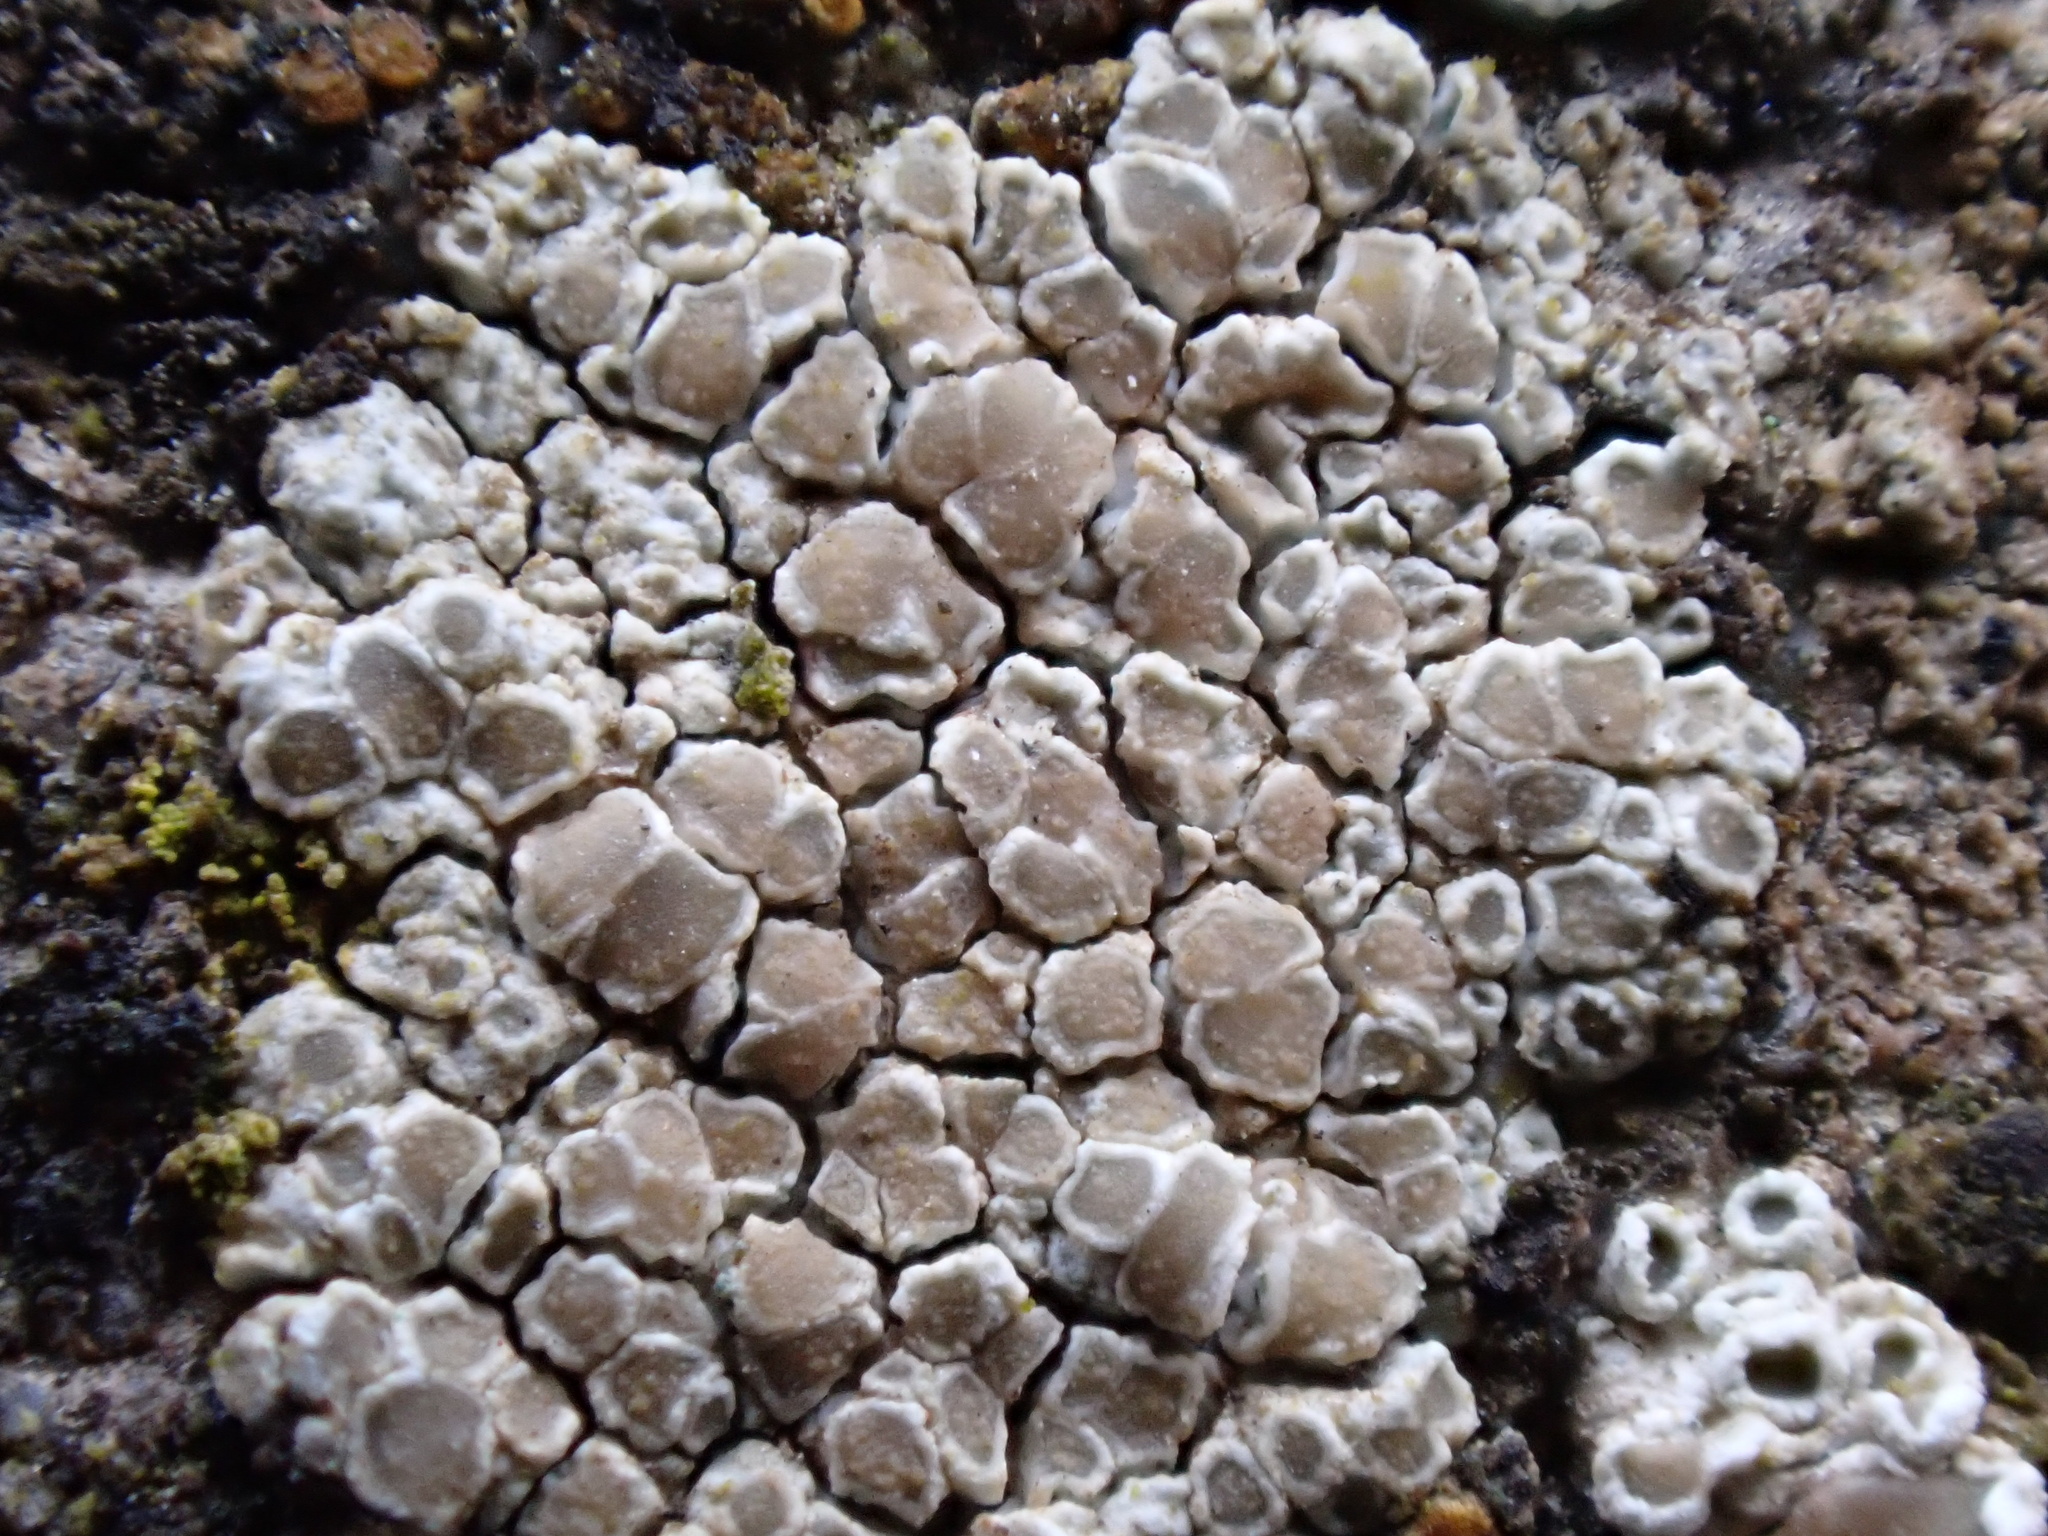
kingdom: Fungi
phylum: Ascomycota
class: Lecanoromycetes
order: Lecanorales
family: Lecanoraceae
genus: Polyozosia
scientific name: Polyozosia albescens
